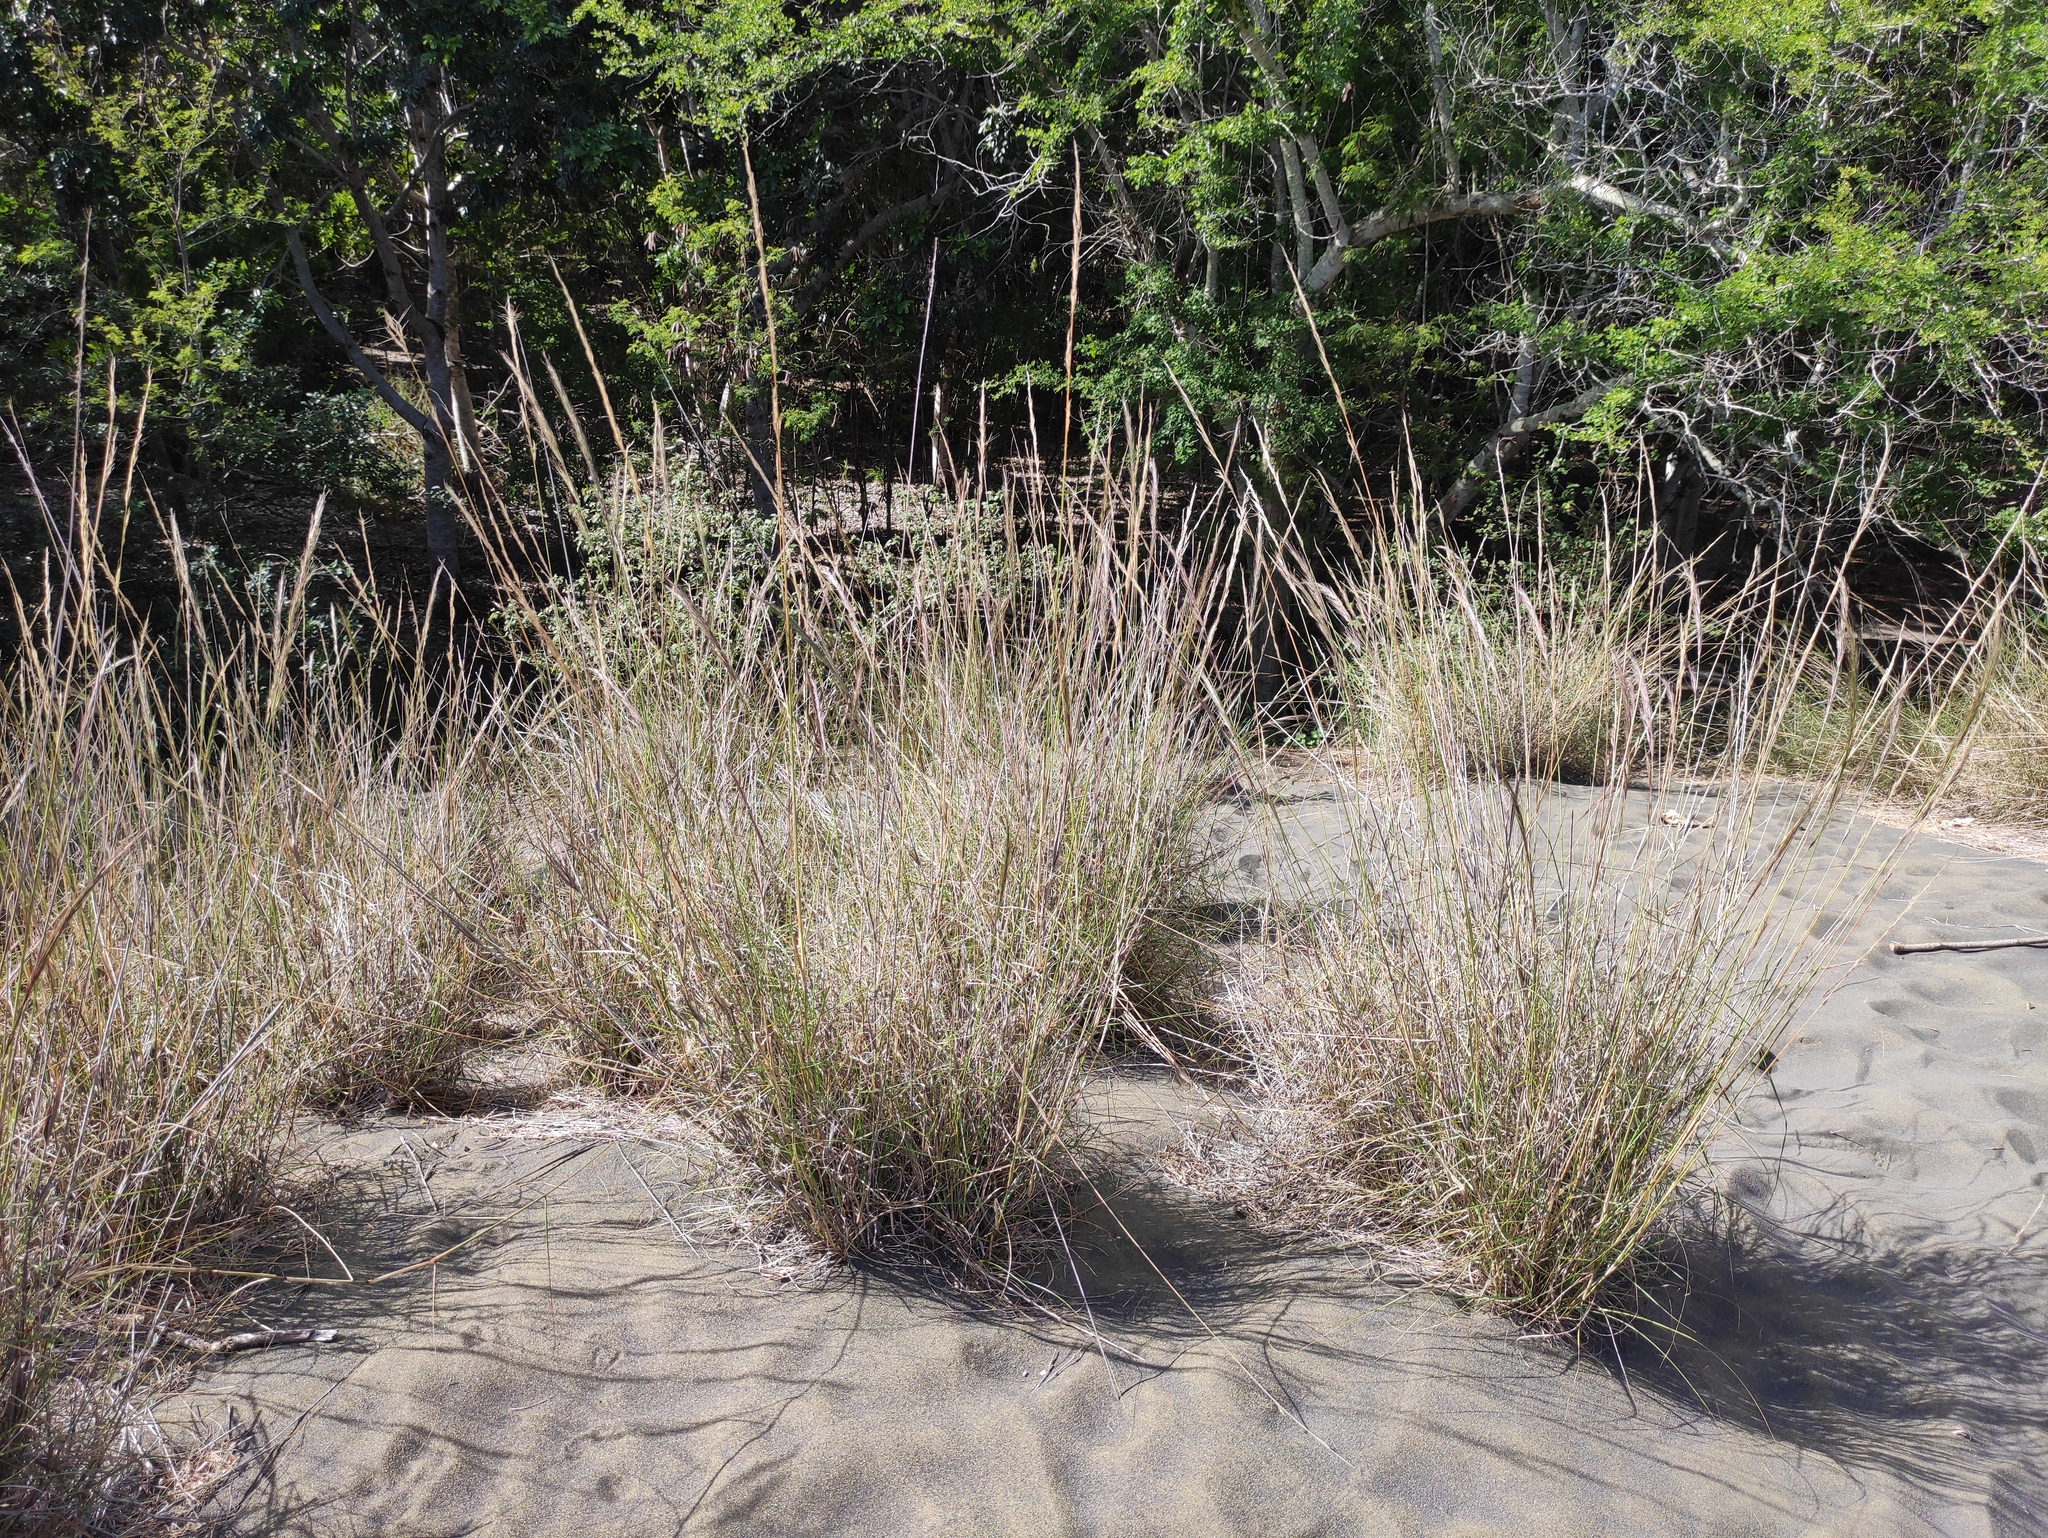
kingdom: Plantae
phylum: Tracheophyta
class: Liliopsida
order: Poales
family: Poaceae
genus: Aristida
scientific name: Aristida setacea
